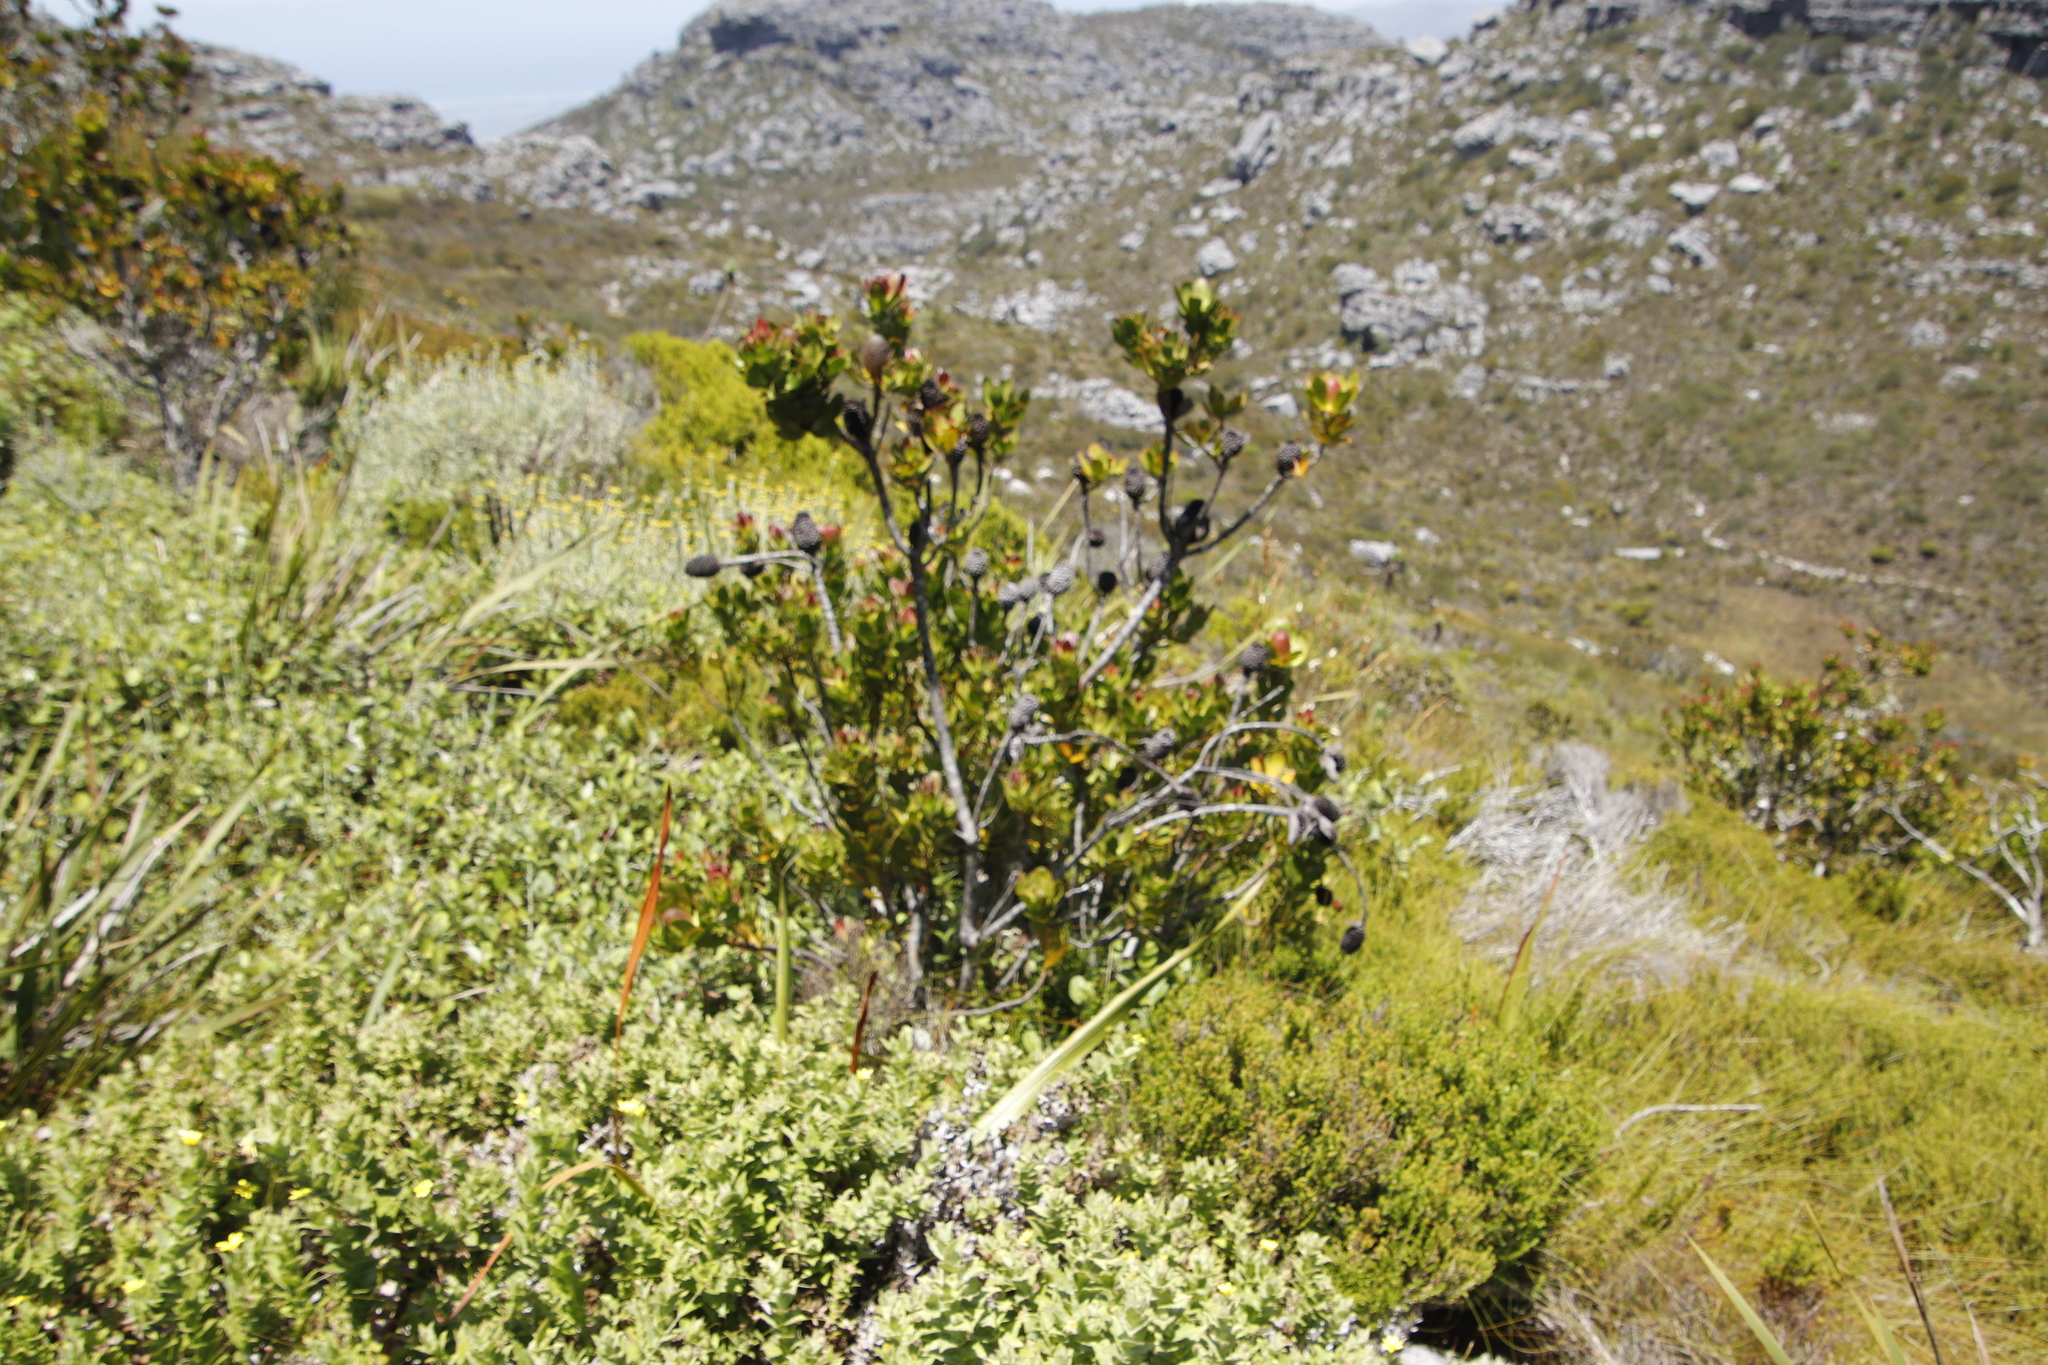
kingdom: Plantae
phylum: Tracheophyta
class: Magnoliopsida
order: Proteales
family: Proteaceae
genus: Leucadendron
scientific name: Leucadendron strobilinum
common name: Mountain rose
